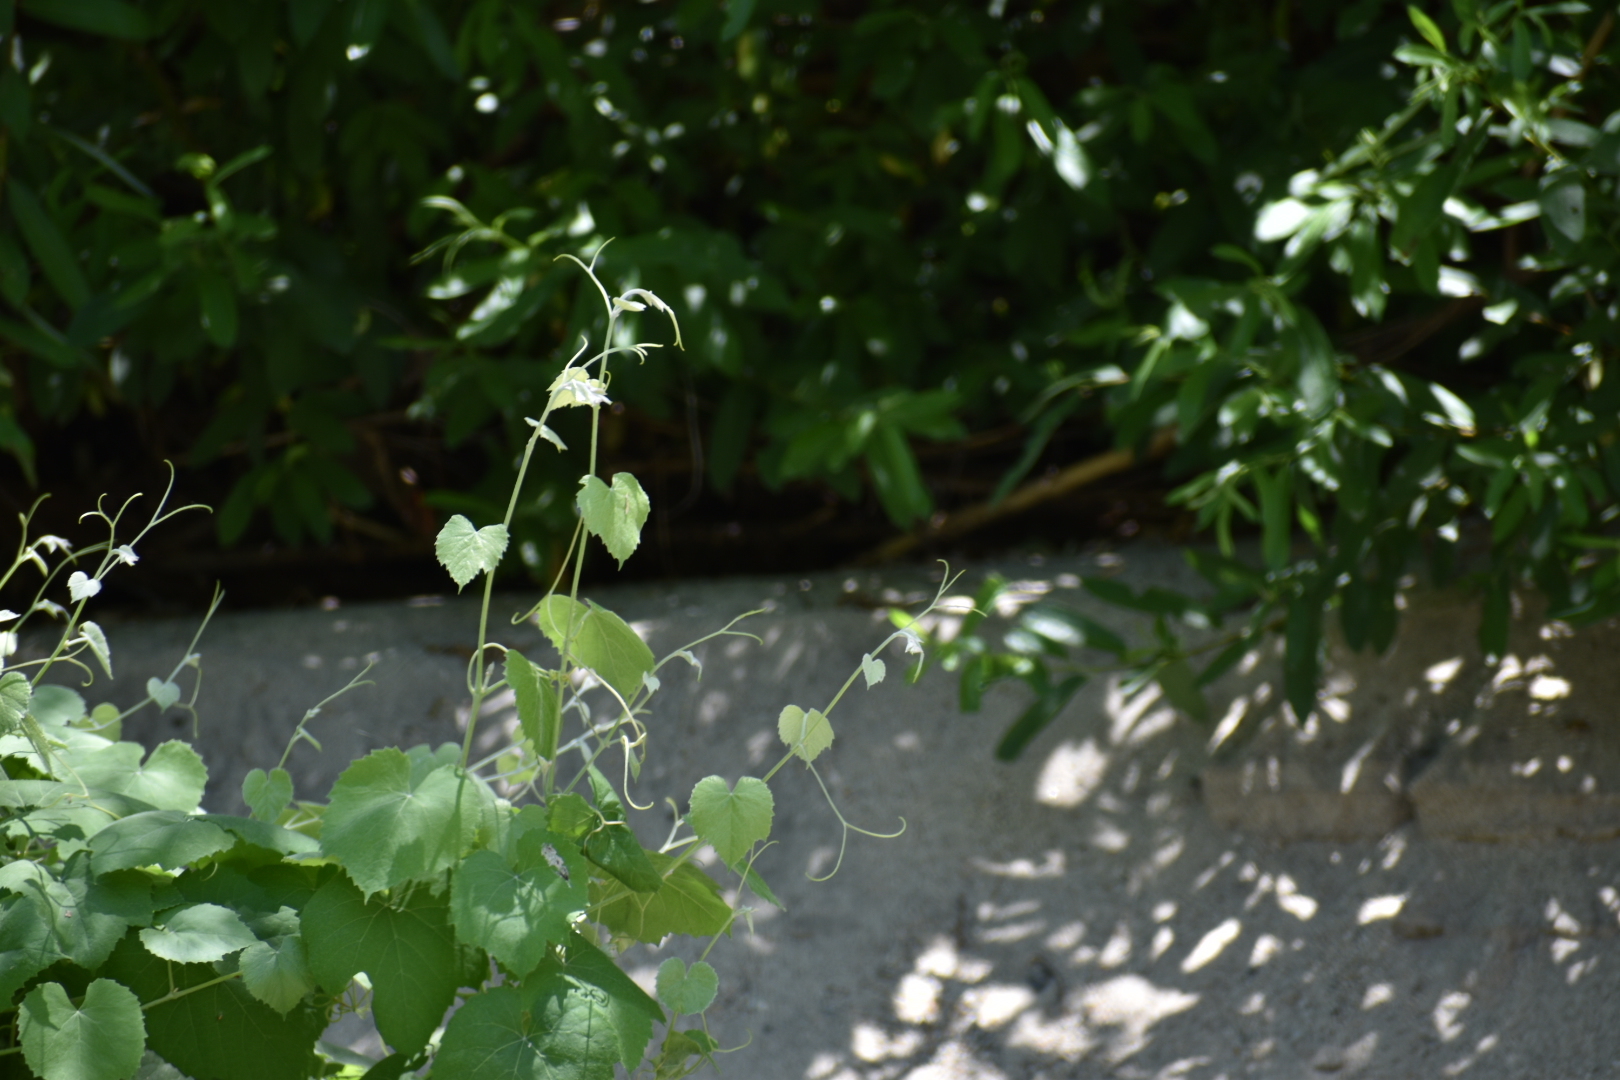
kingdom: Plantae
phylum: Tracheophyta
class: Magnoliopsida
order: Vitales
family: Vitaceae
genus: Vitis
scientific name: Vitis girdiana
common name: Desert wild grape
